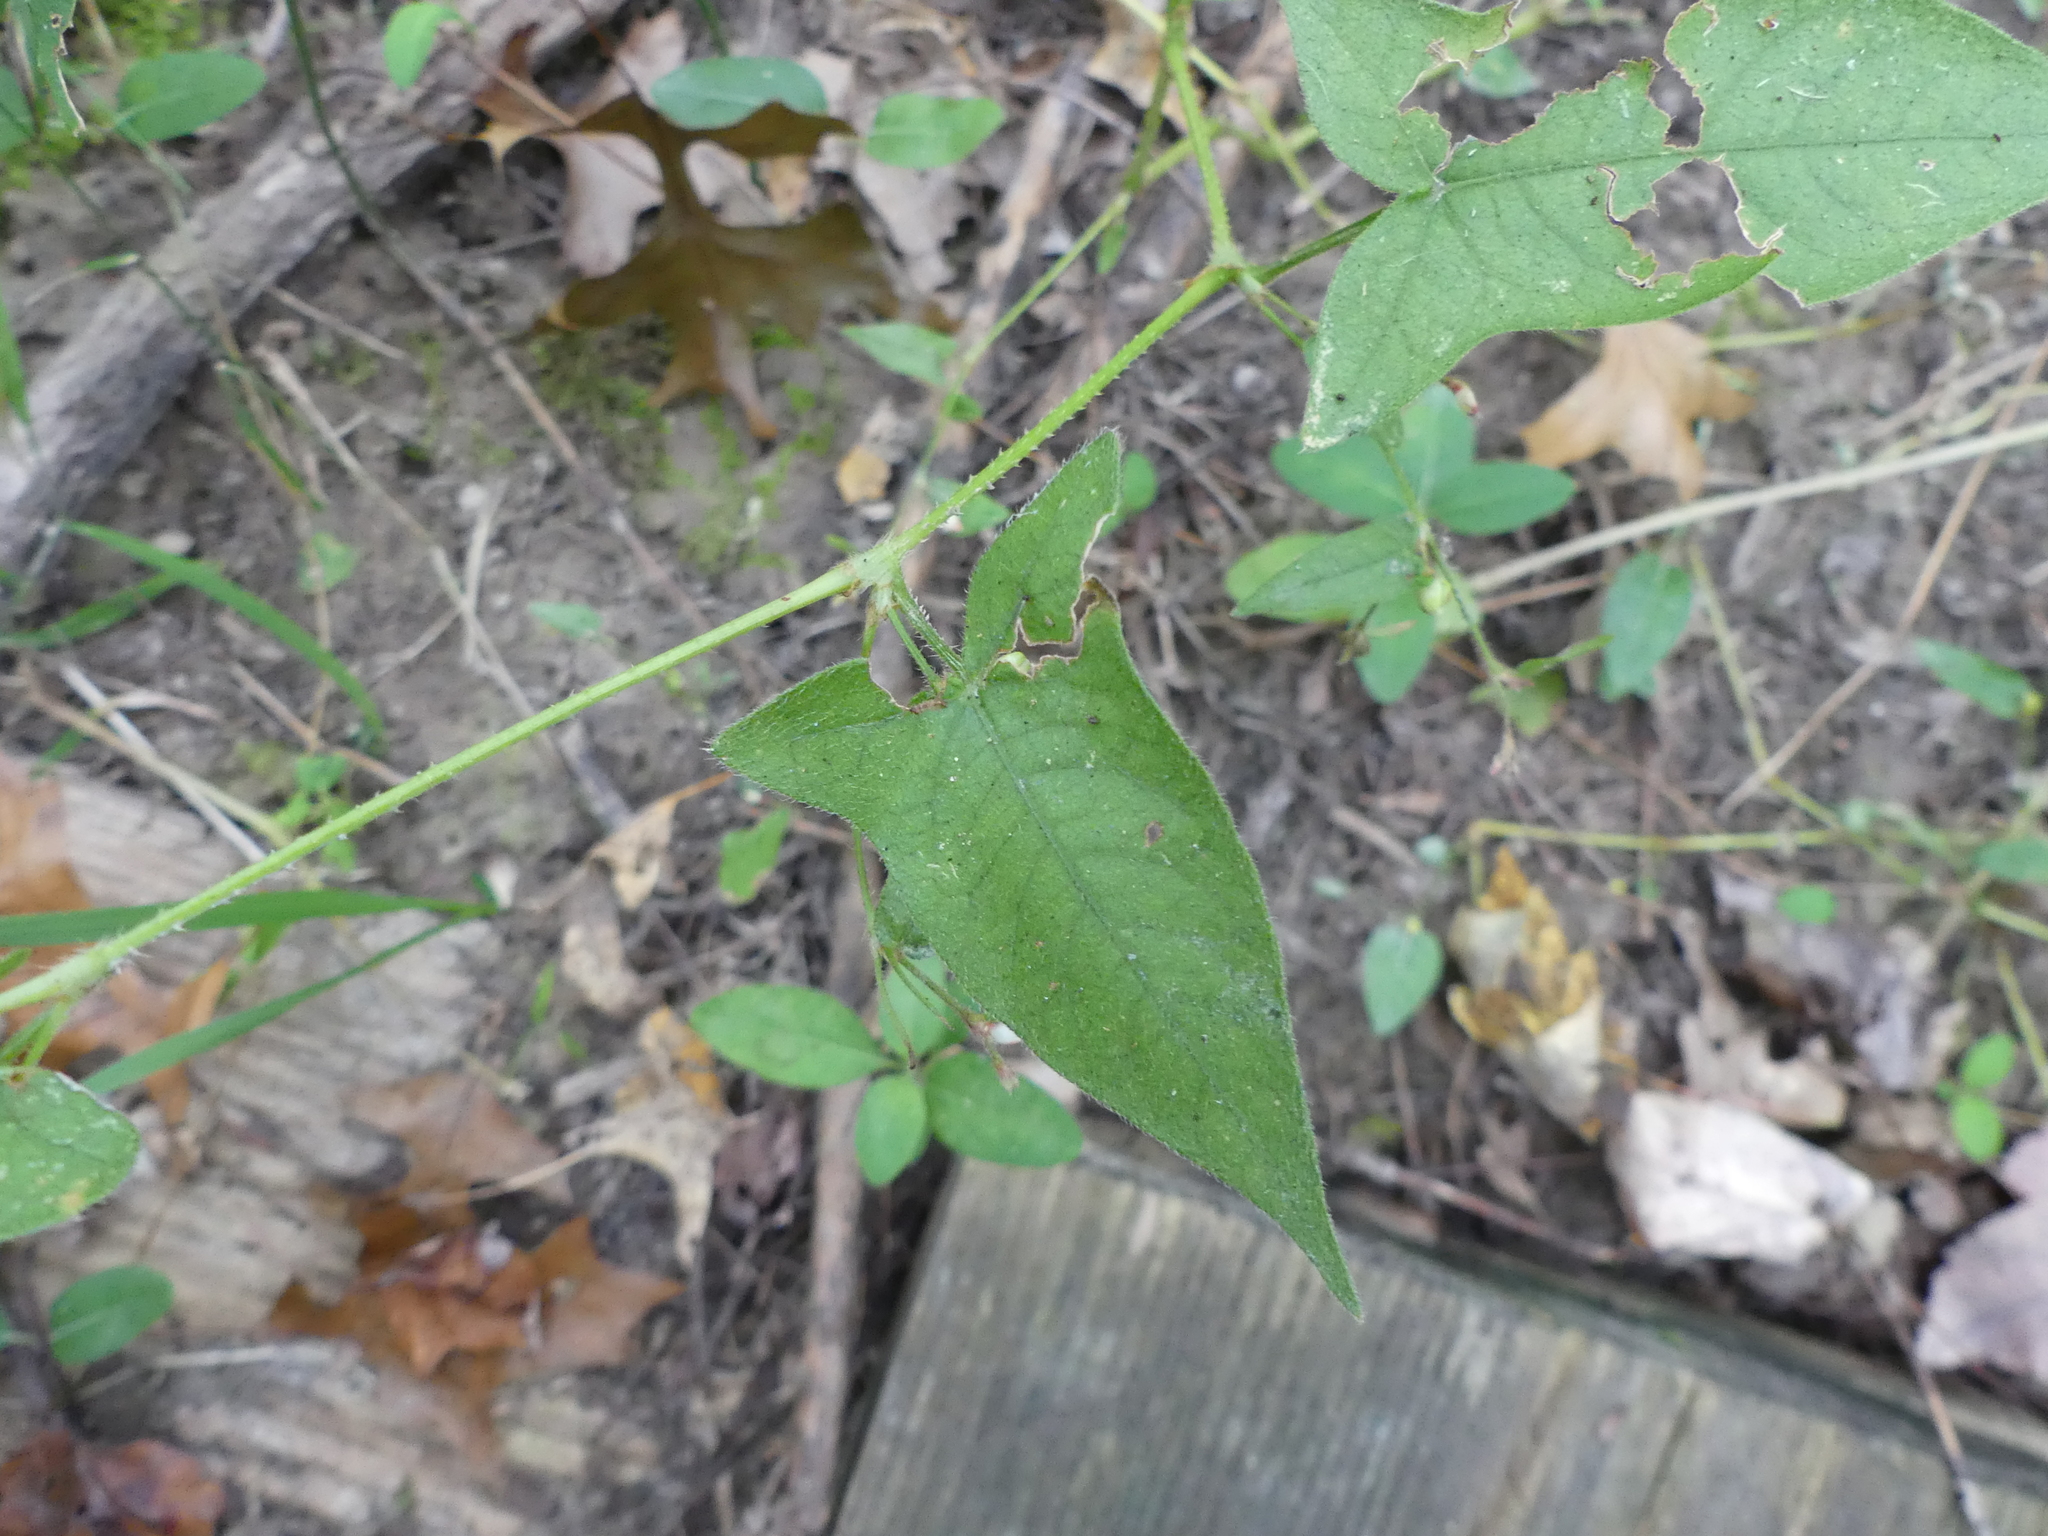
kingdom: Plantae
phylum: Tracheophyta
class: Magnoliopsida
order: Caryophyllales
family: Polygonaceae
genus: Persicaria
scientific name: Persicaria arifolia
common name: Halberd-leaved tear-thumb
